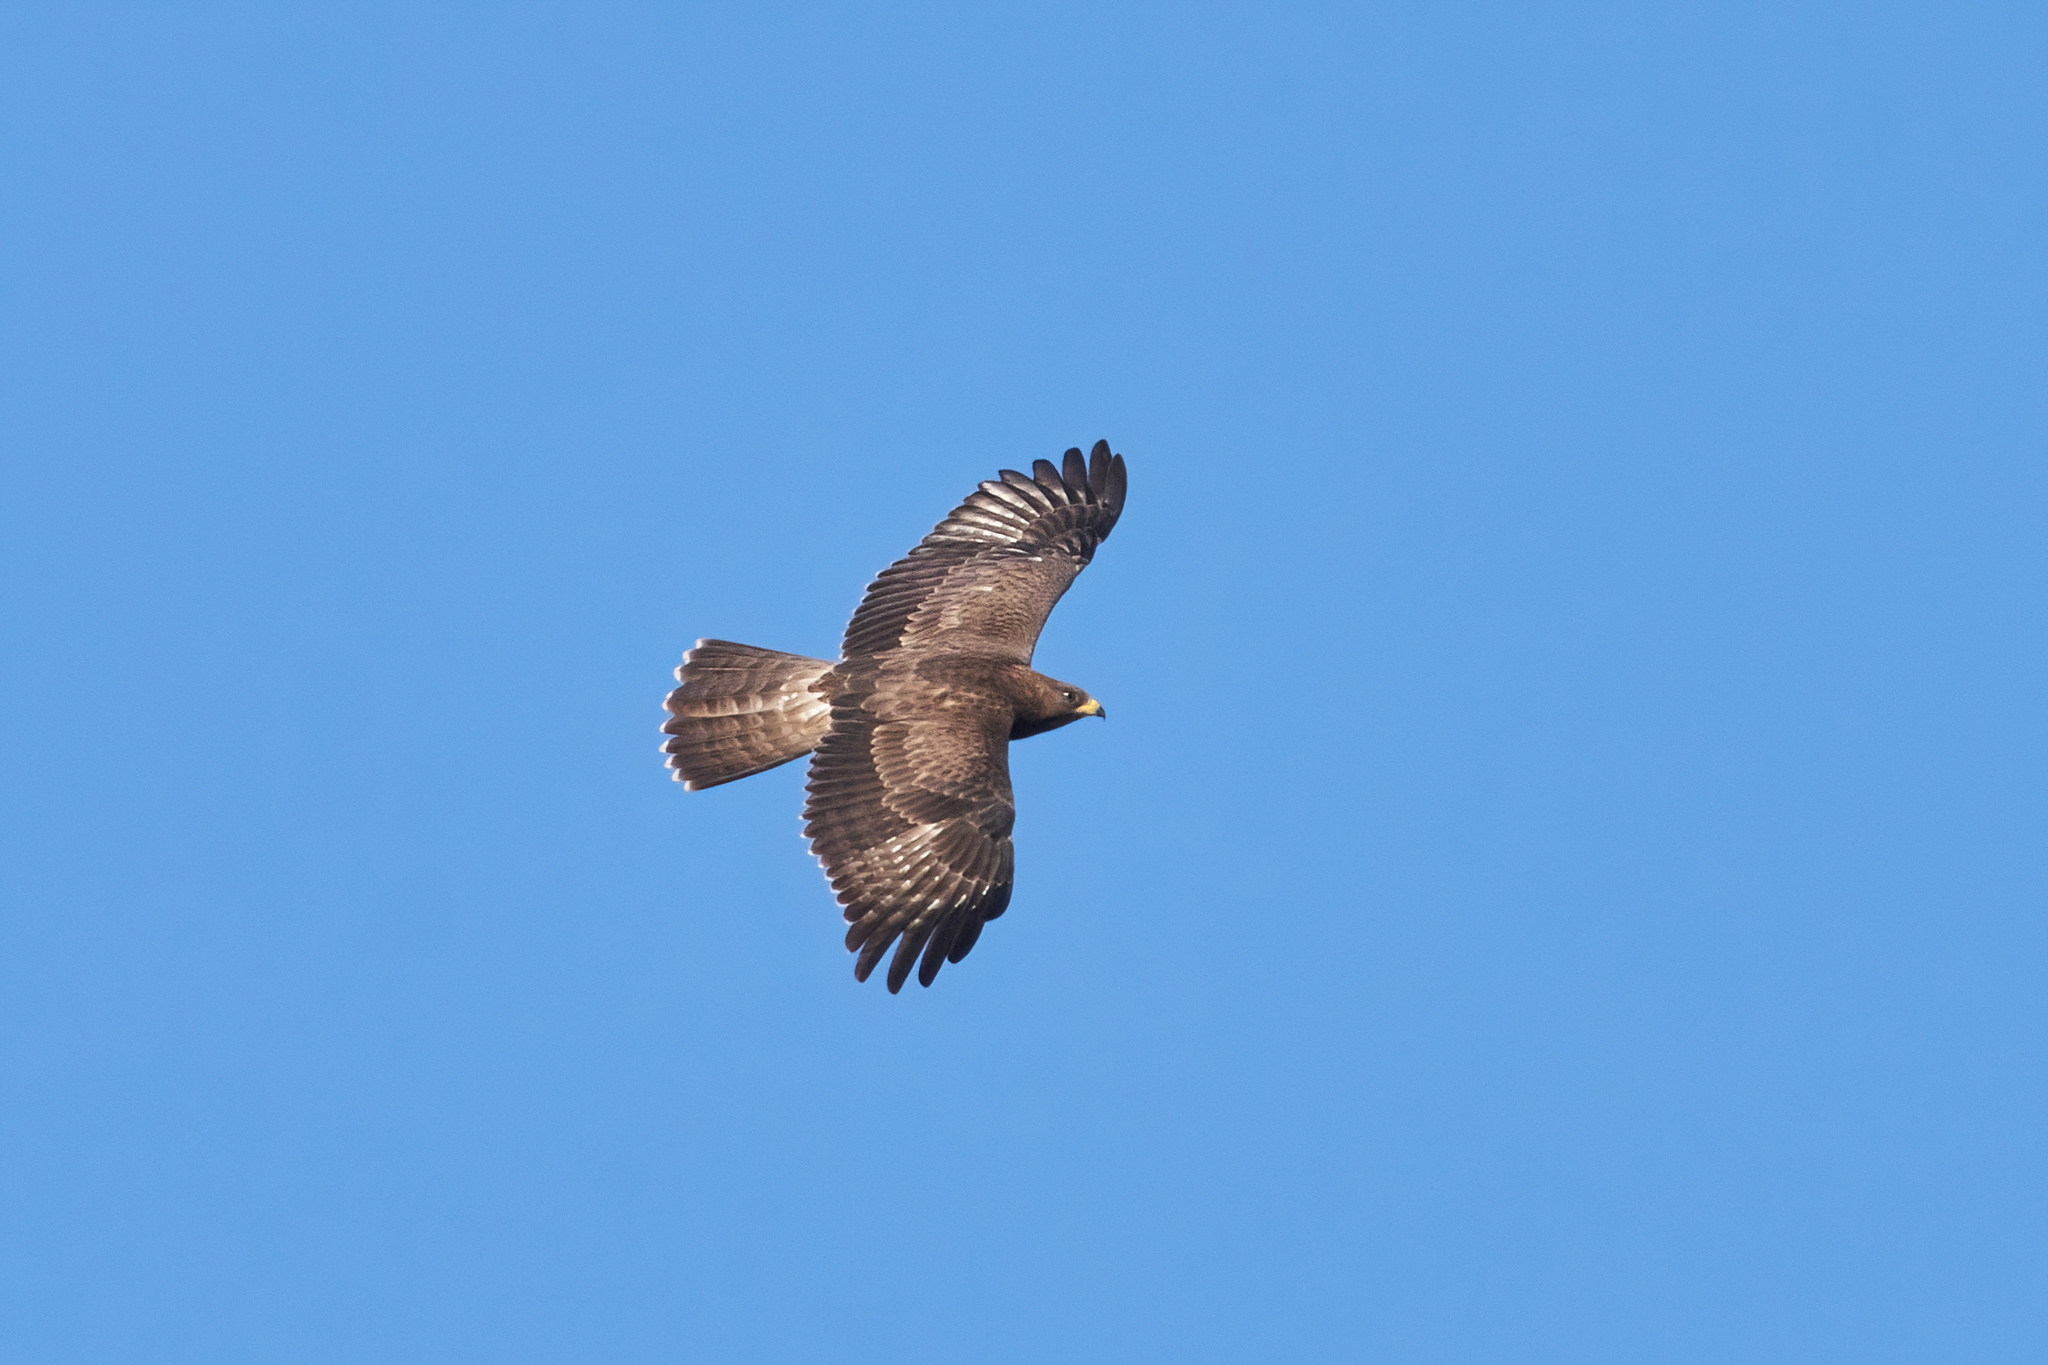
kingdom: Animalia
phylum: Chordata
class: Aves
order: Accipitriformes
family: Accipitridae
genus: Pernis
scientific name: Pernis apivorus
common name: European honey buzzard
